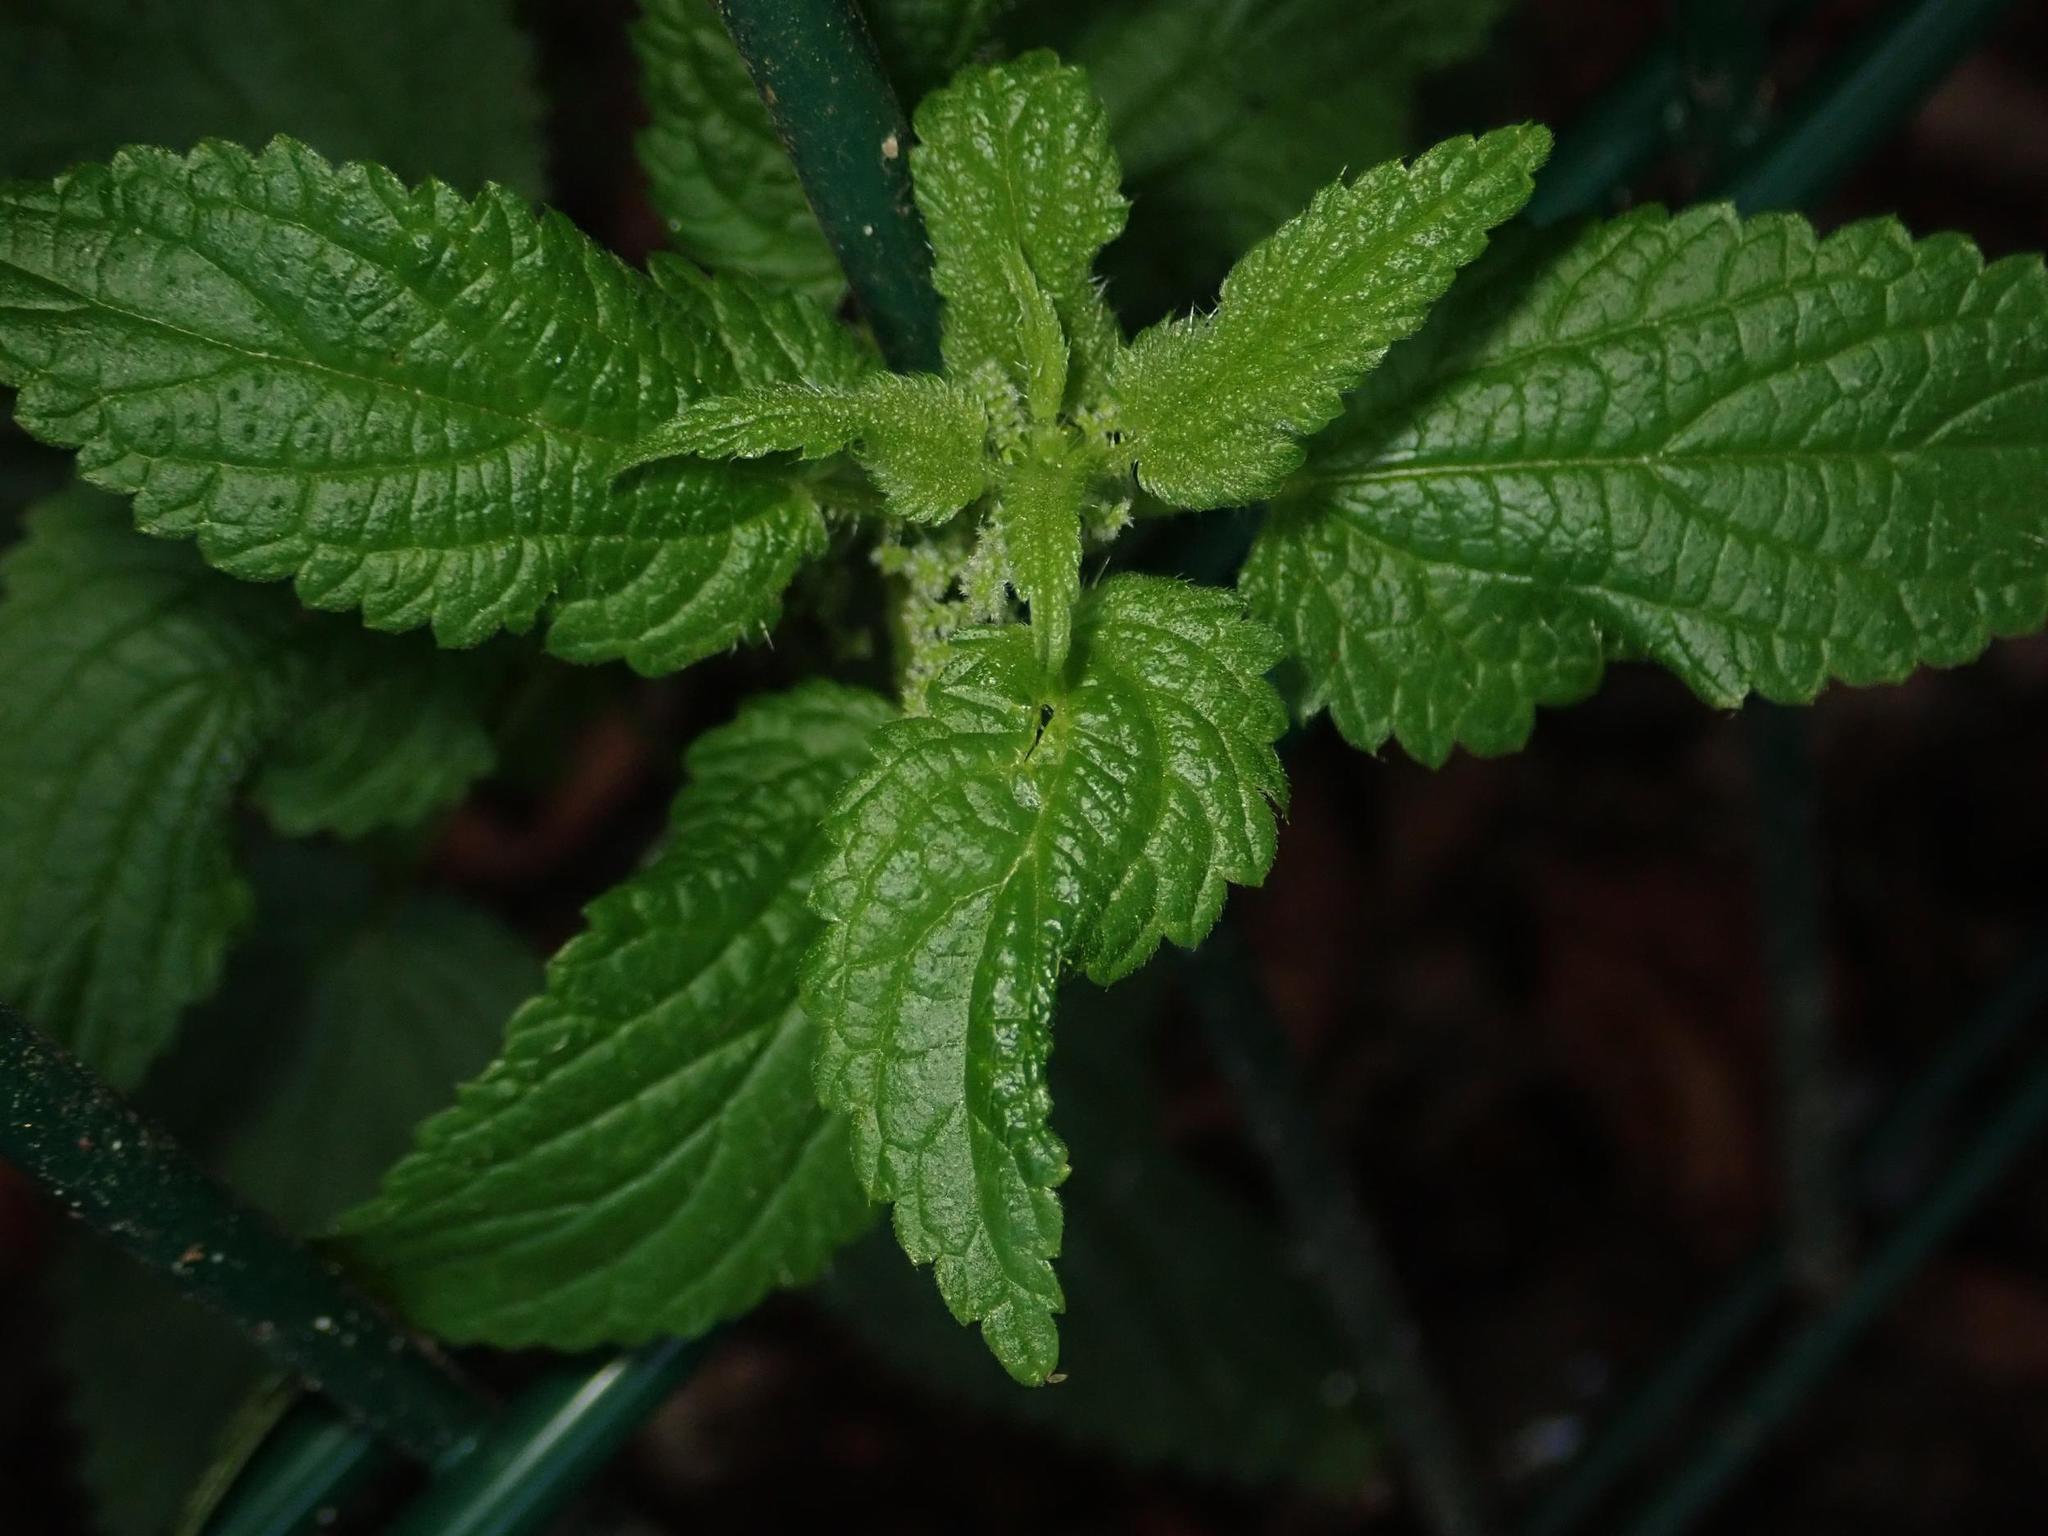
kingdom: Plantae
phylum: Tracheophyta
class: Magnoliopsida
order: Rosales
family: Urticaceae
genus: Urtica
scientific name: Urtica dioica
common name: Common nettle
